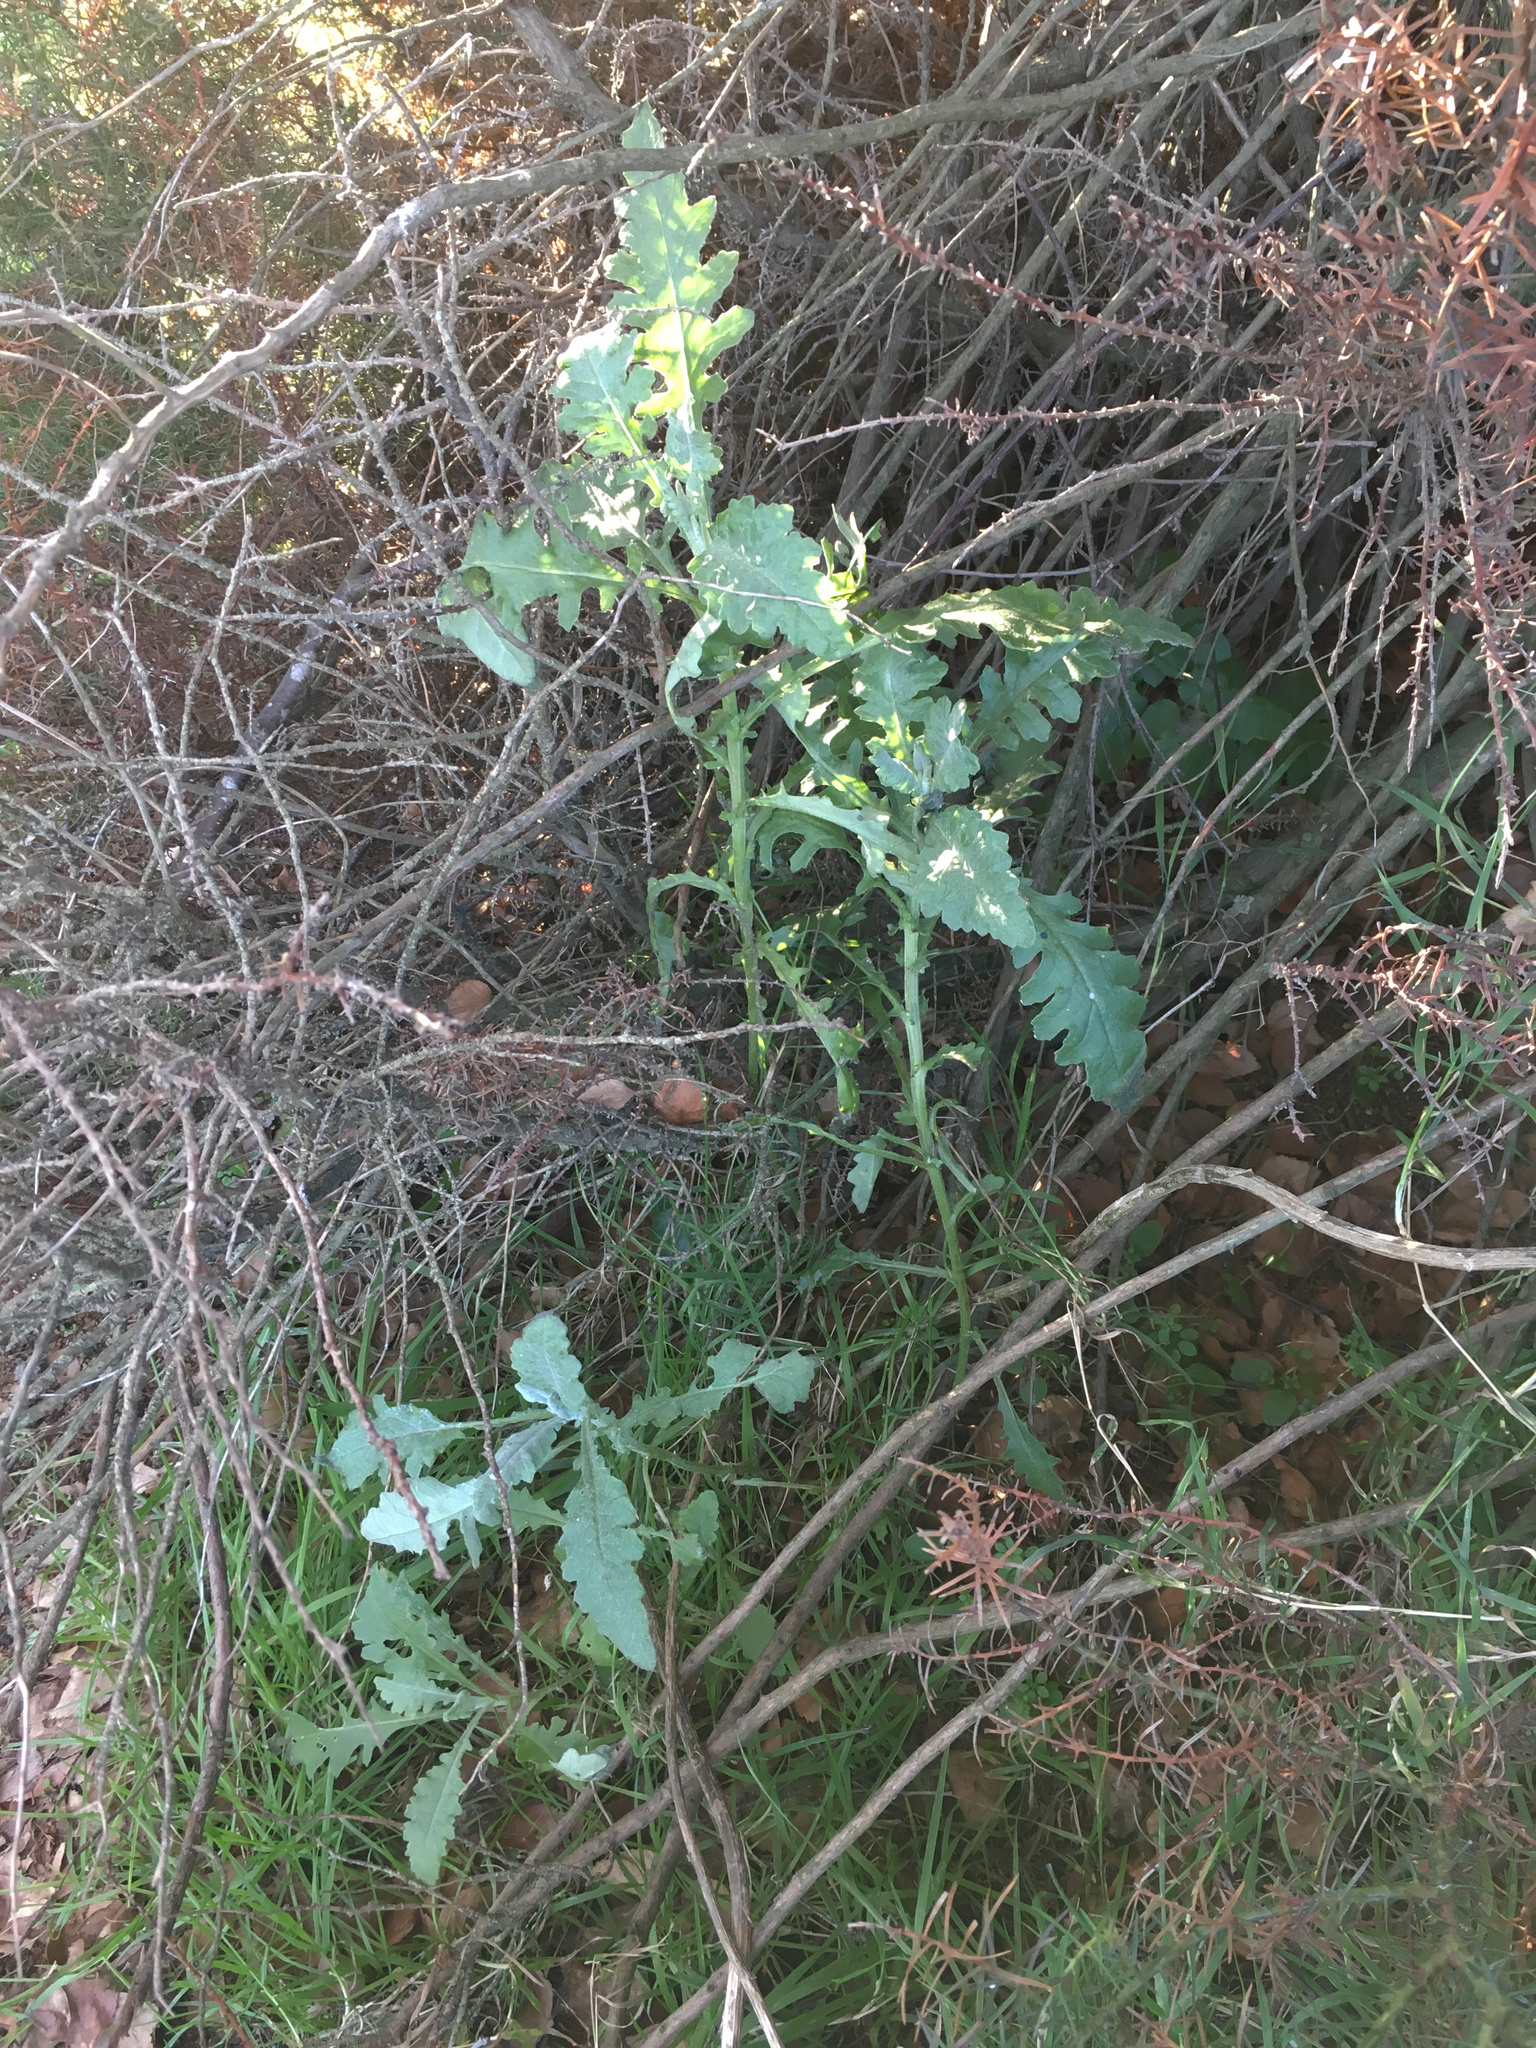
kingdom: Plantae
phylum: Tracheophyta
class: Magnoliopsida
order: Asterales
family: Asteraceae
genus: Senecio
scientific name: Senecio glomeratus
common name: Cutleaf burnweed
